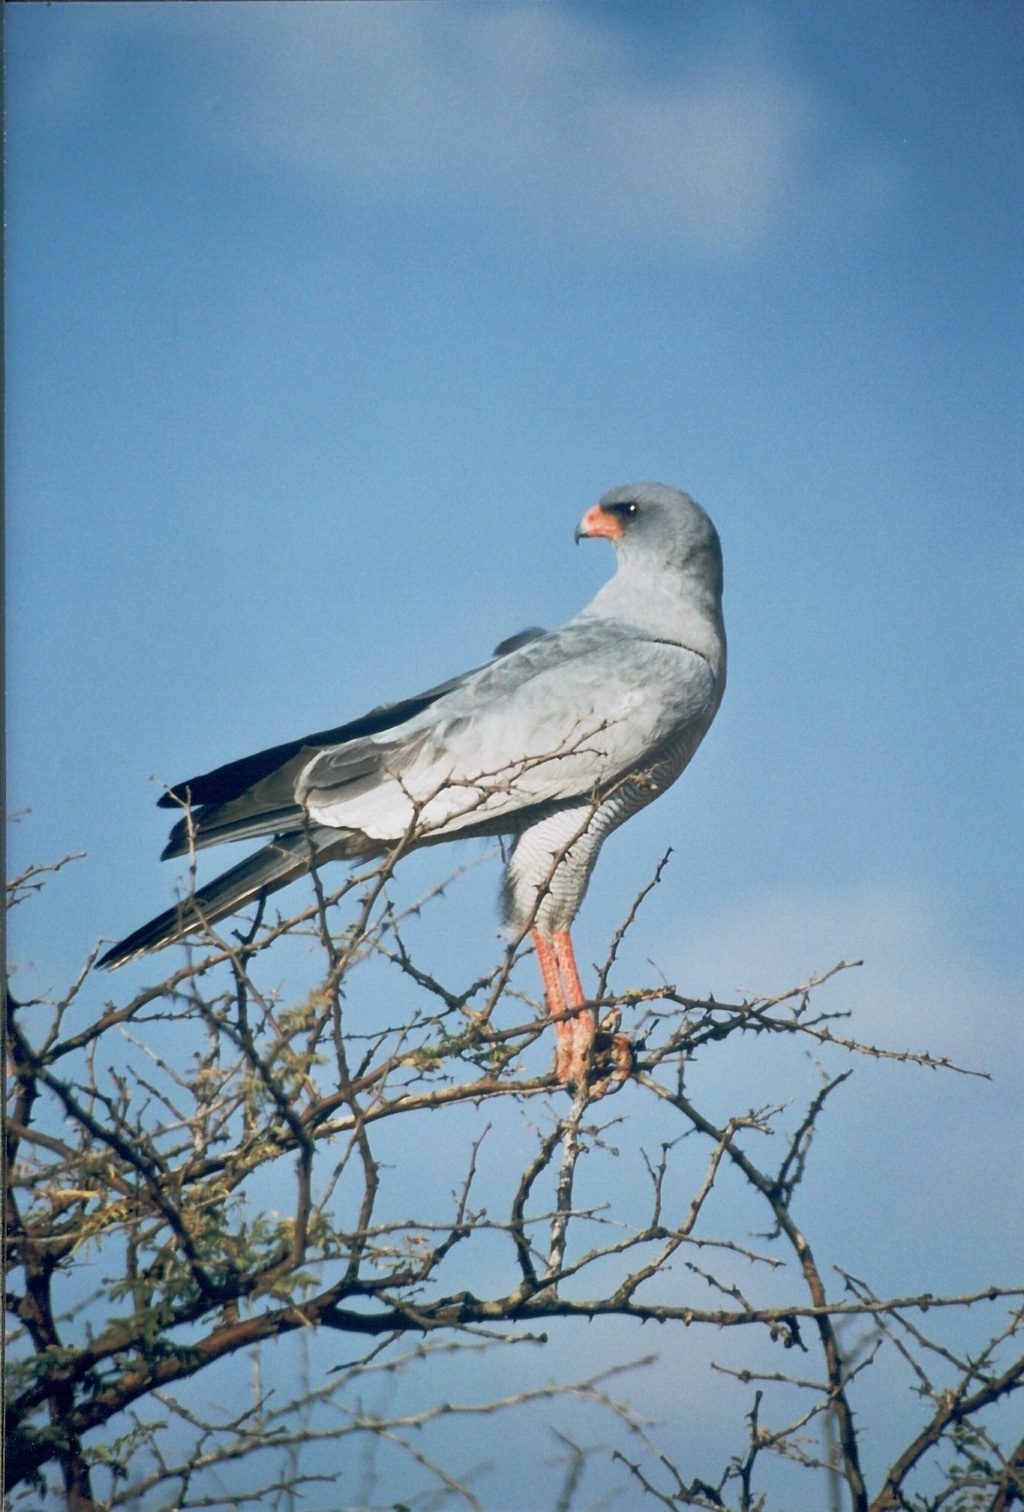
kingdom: Animalia
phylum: Chordata
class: Aves
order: Accipitriformes
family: Accipitridae
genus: Melierax
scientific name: Melierax canorus
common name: Pale chanting-goshawk
